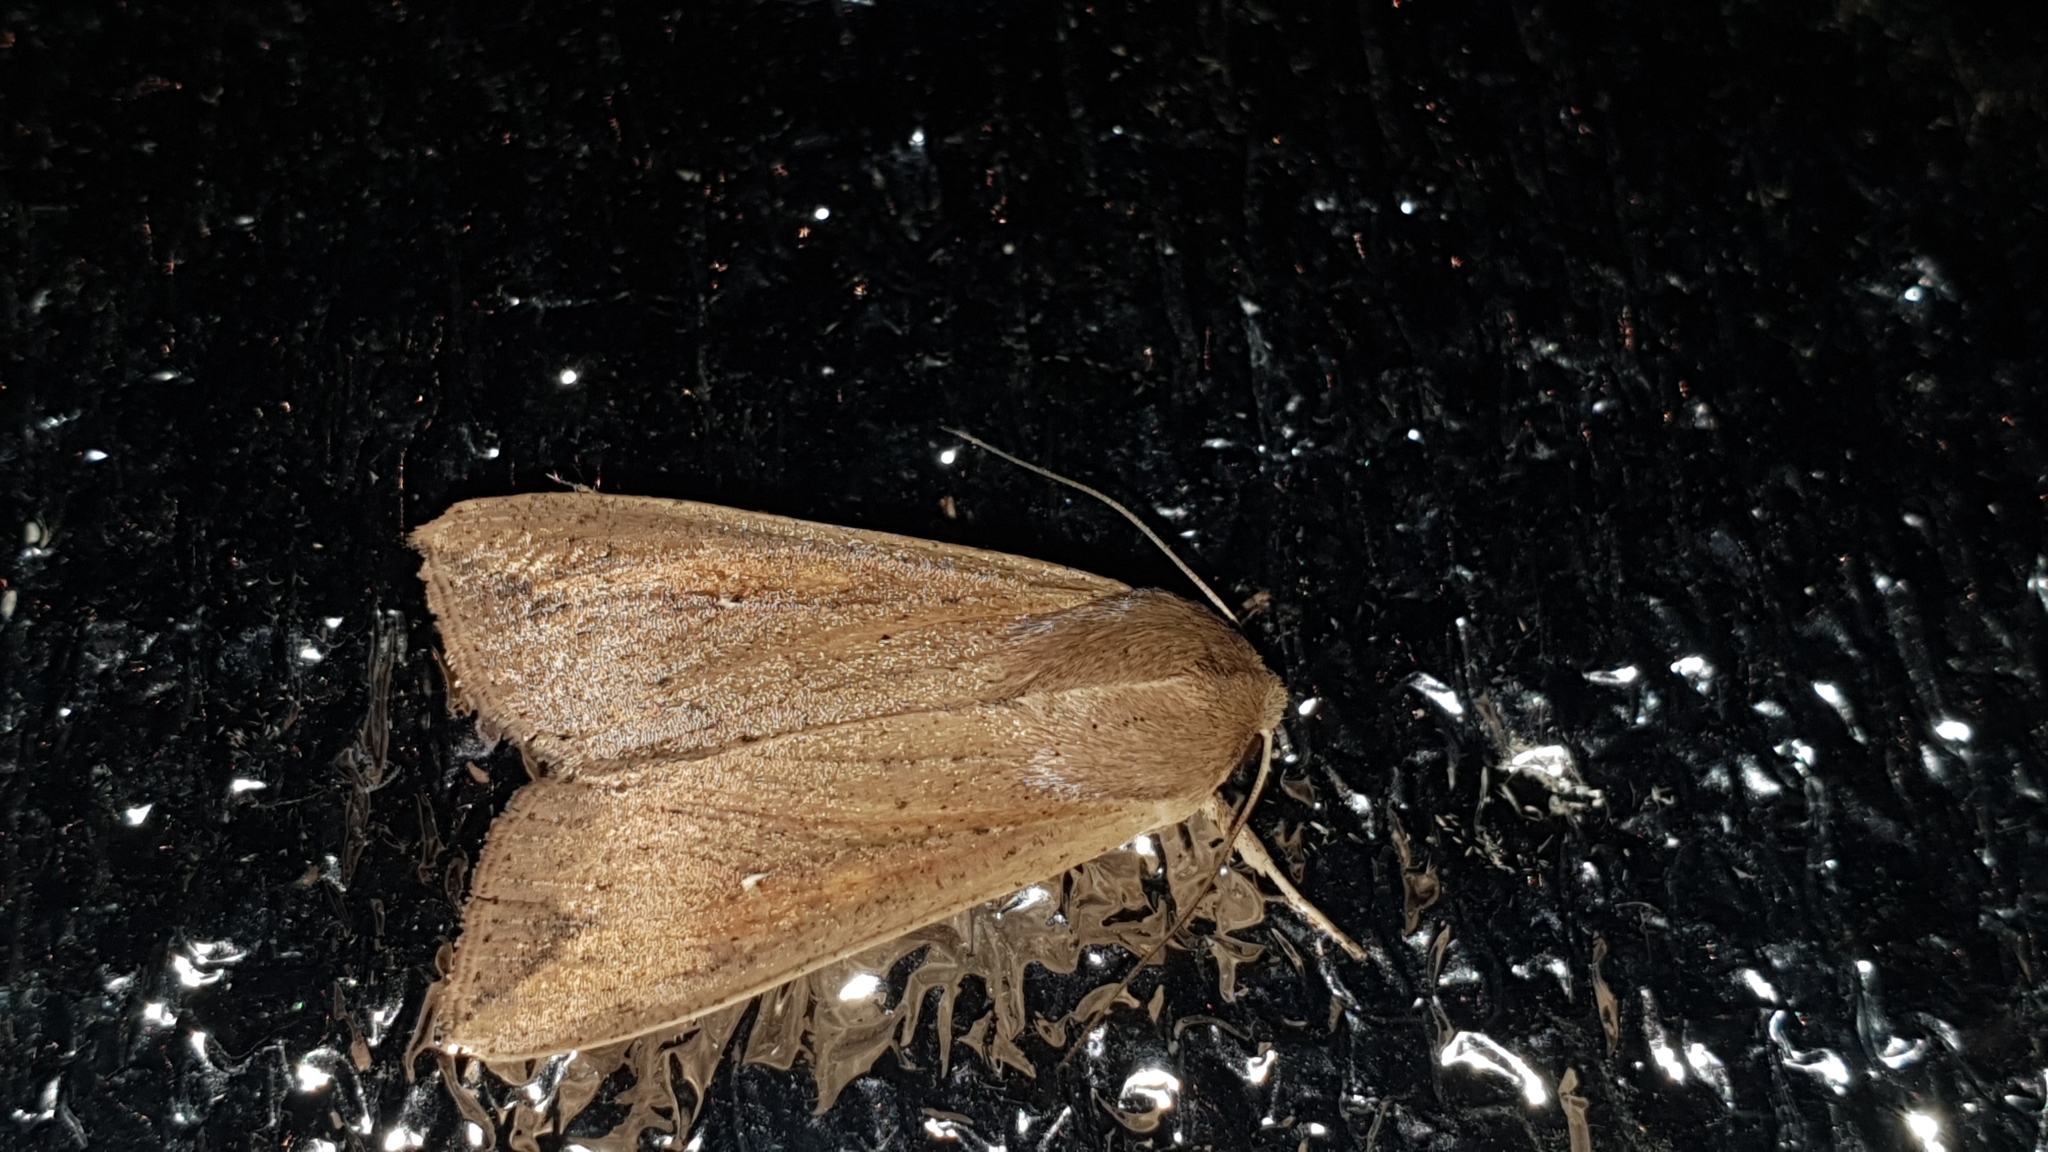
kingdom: Animalia
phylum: Arthropoda
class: Insecta
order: Lepidoptera
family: Noctuidae
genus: Mythimna
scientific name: Mythimna unipuncta
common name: White-speck
